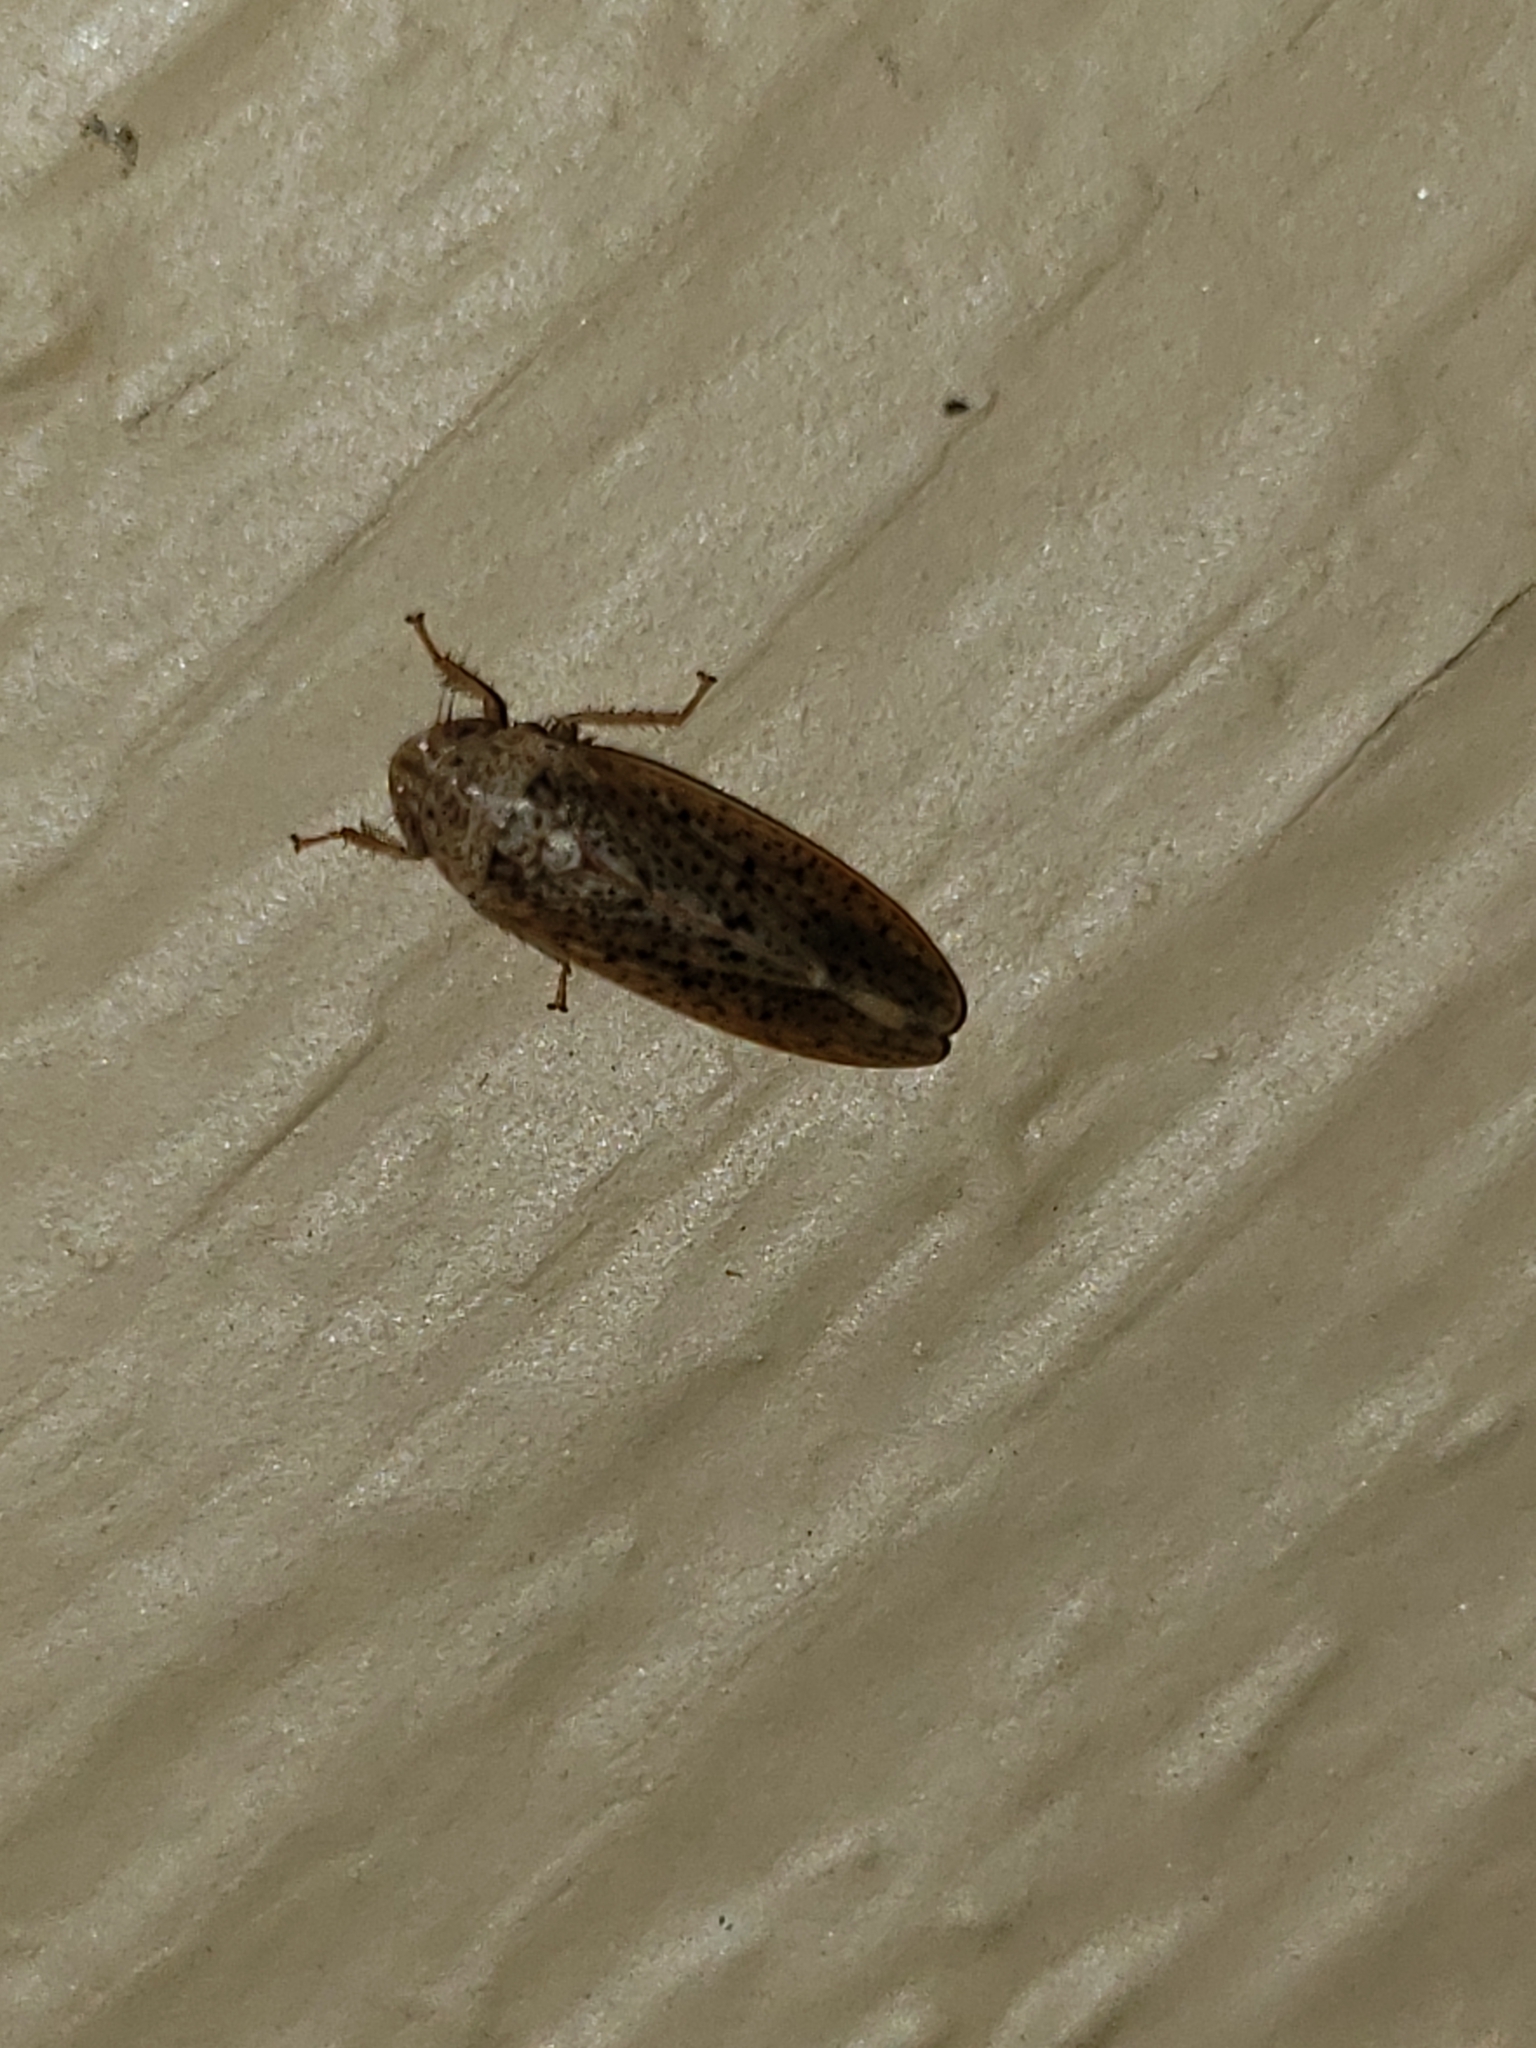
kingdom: Animalia
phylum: Arthropoda
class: Insecta
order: Hemiptera
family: Cicadellidae
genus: Ponana
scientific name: Ponana puncticollis
